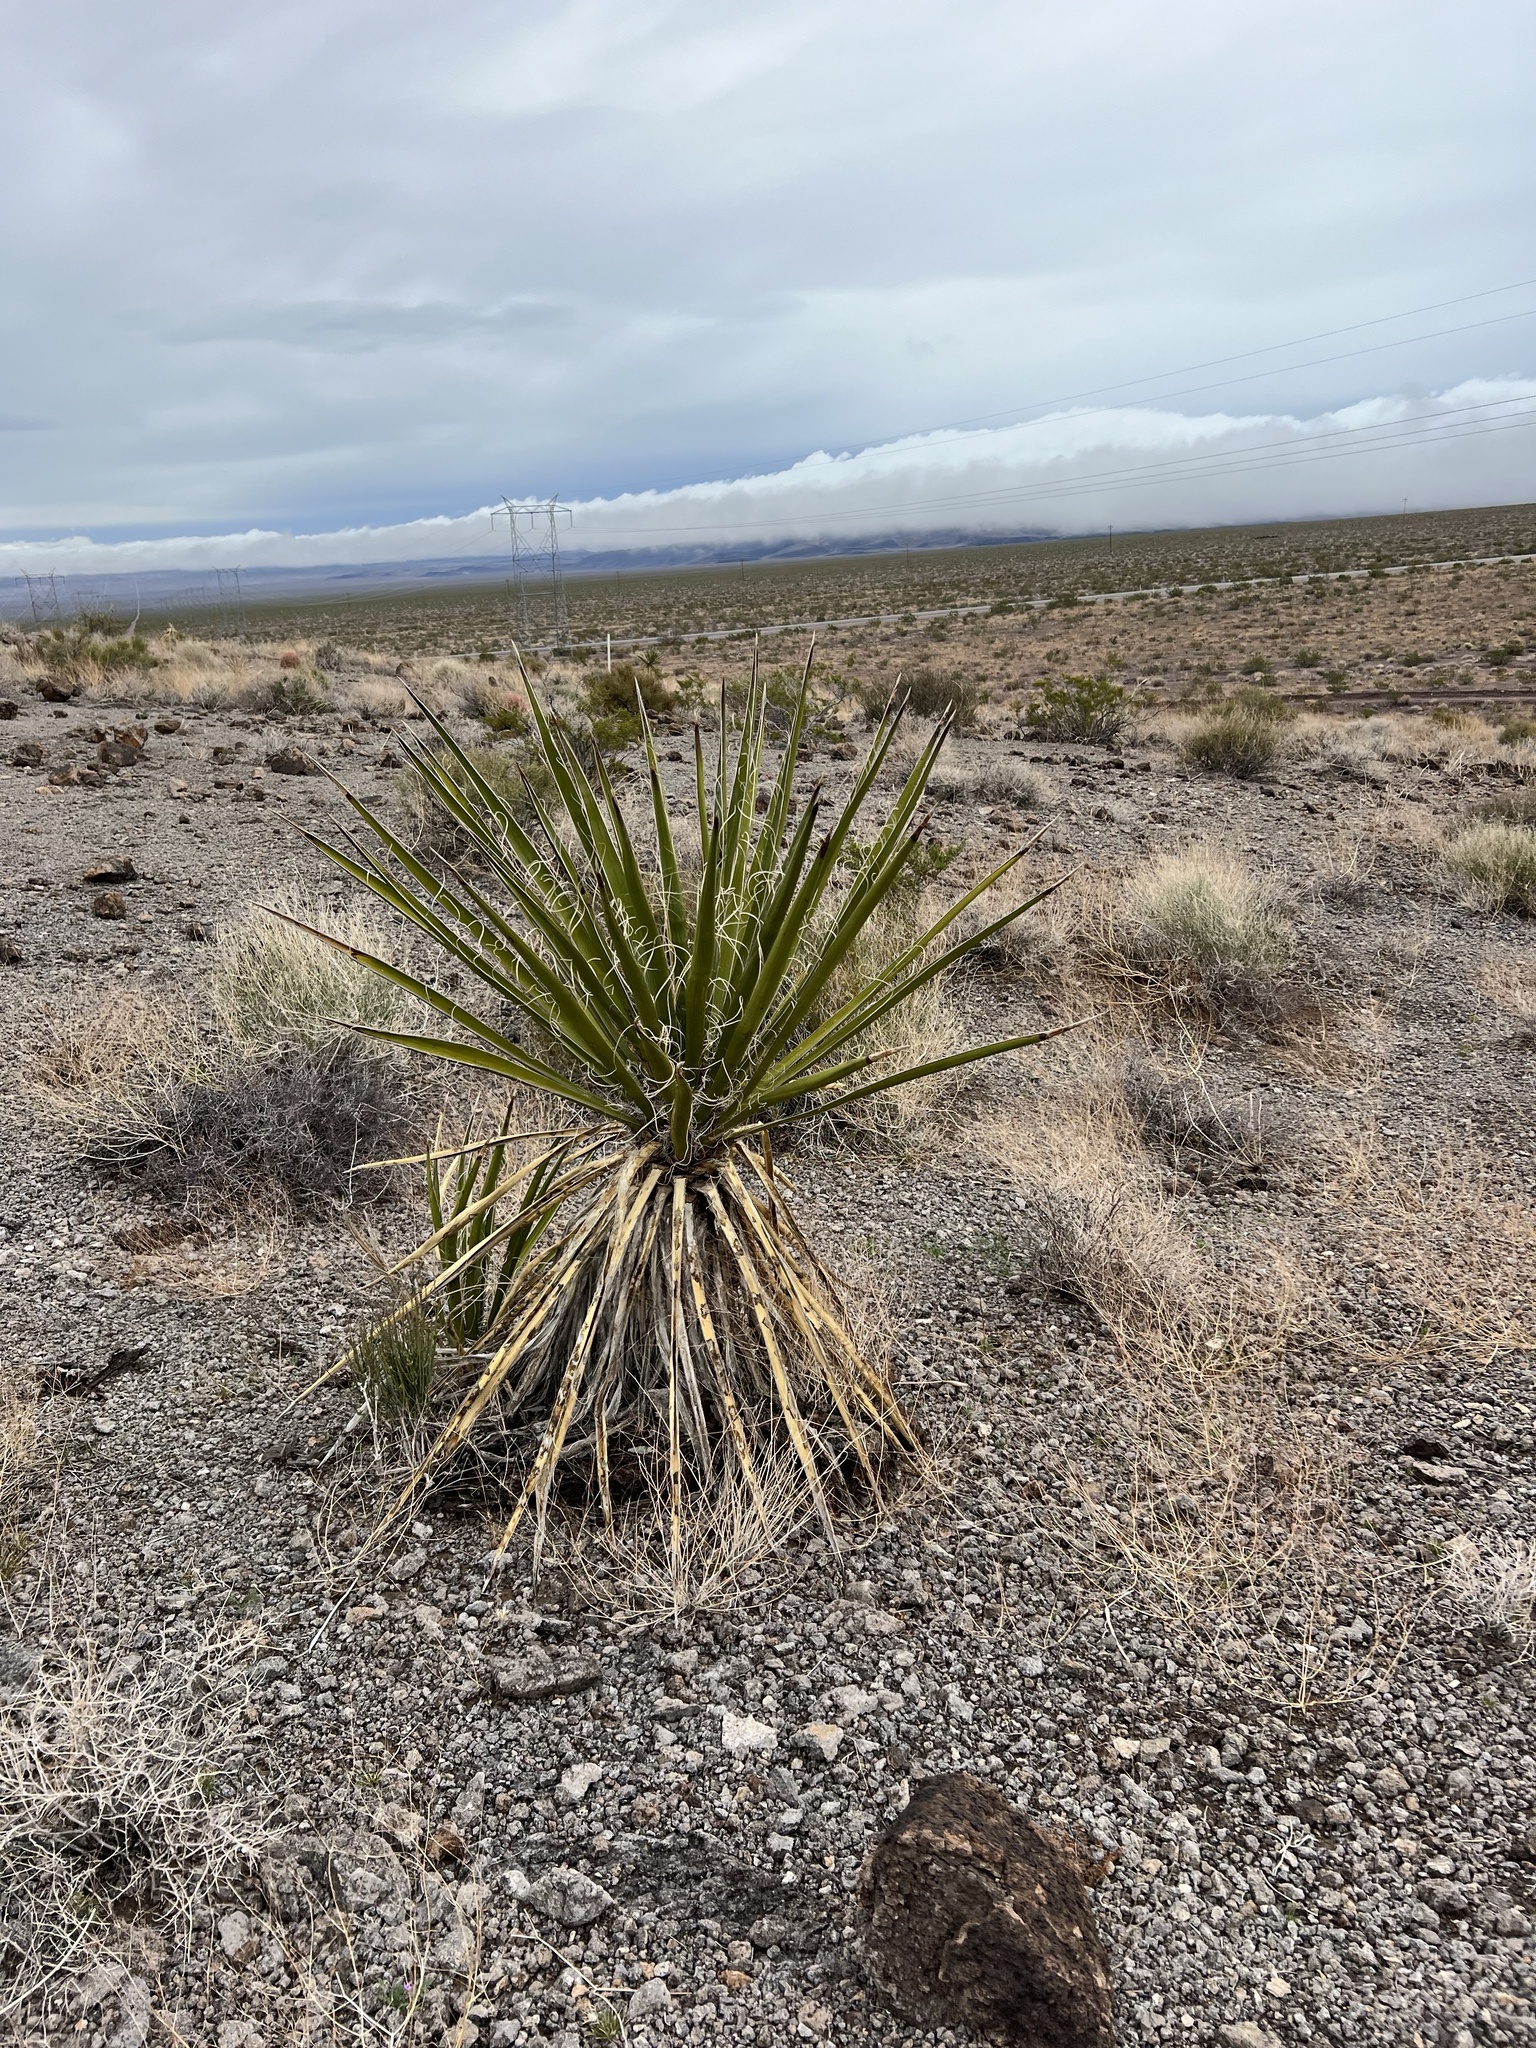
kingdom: Plantae
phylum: Tracheophyta
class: Liliopsida
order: Asparagales
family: Asparagaceae
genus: Yucca
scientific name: Yucca schidigera
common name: Mojave yucca
